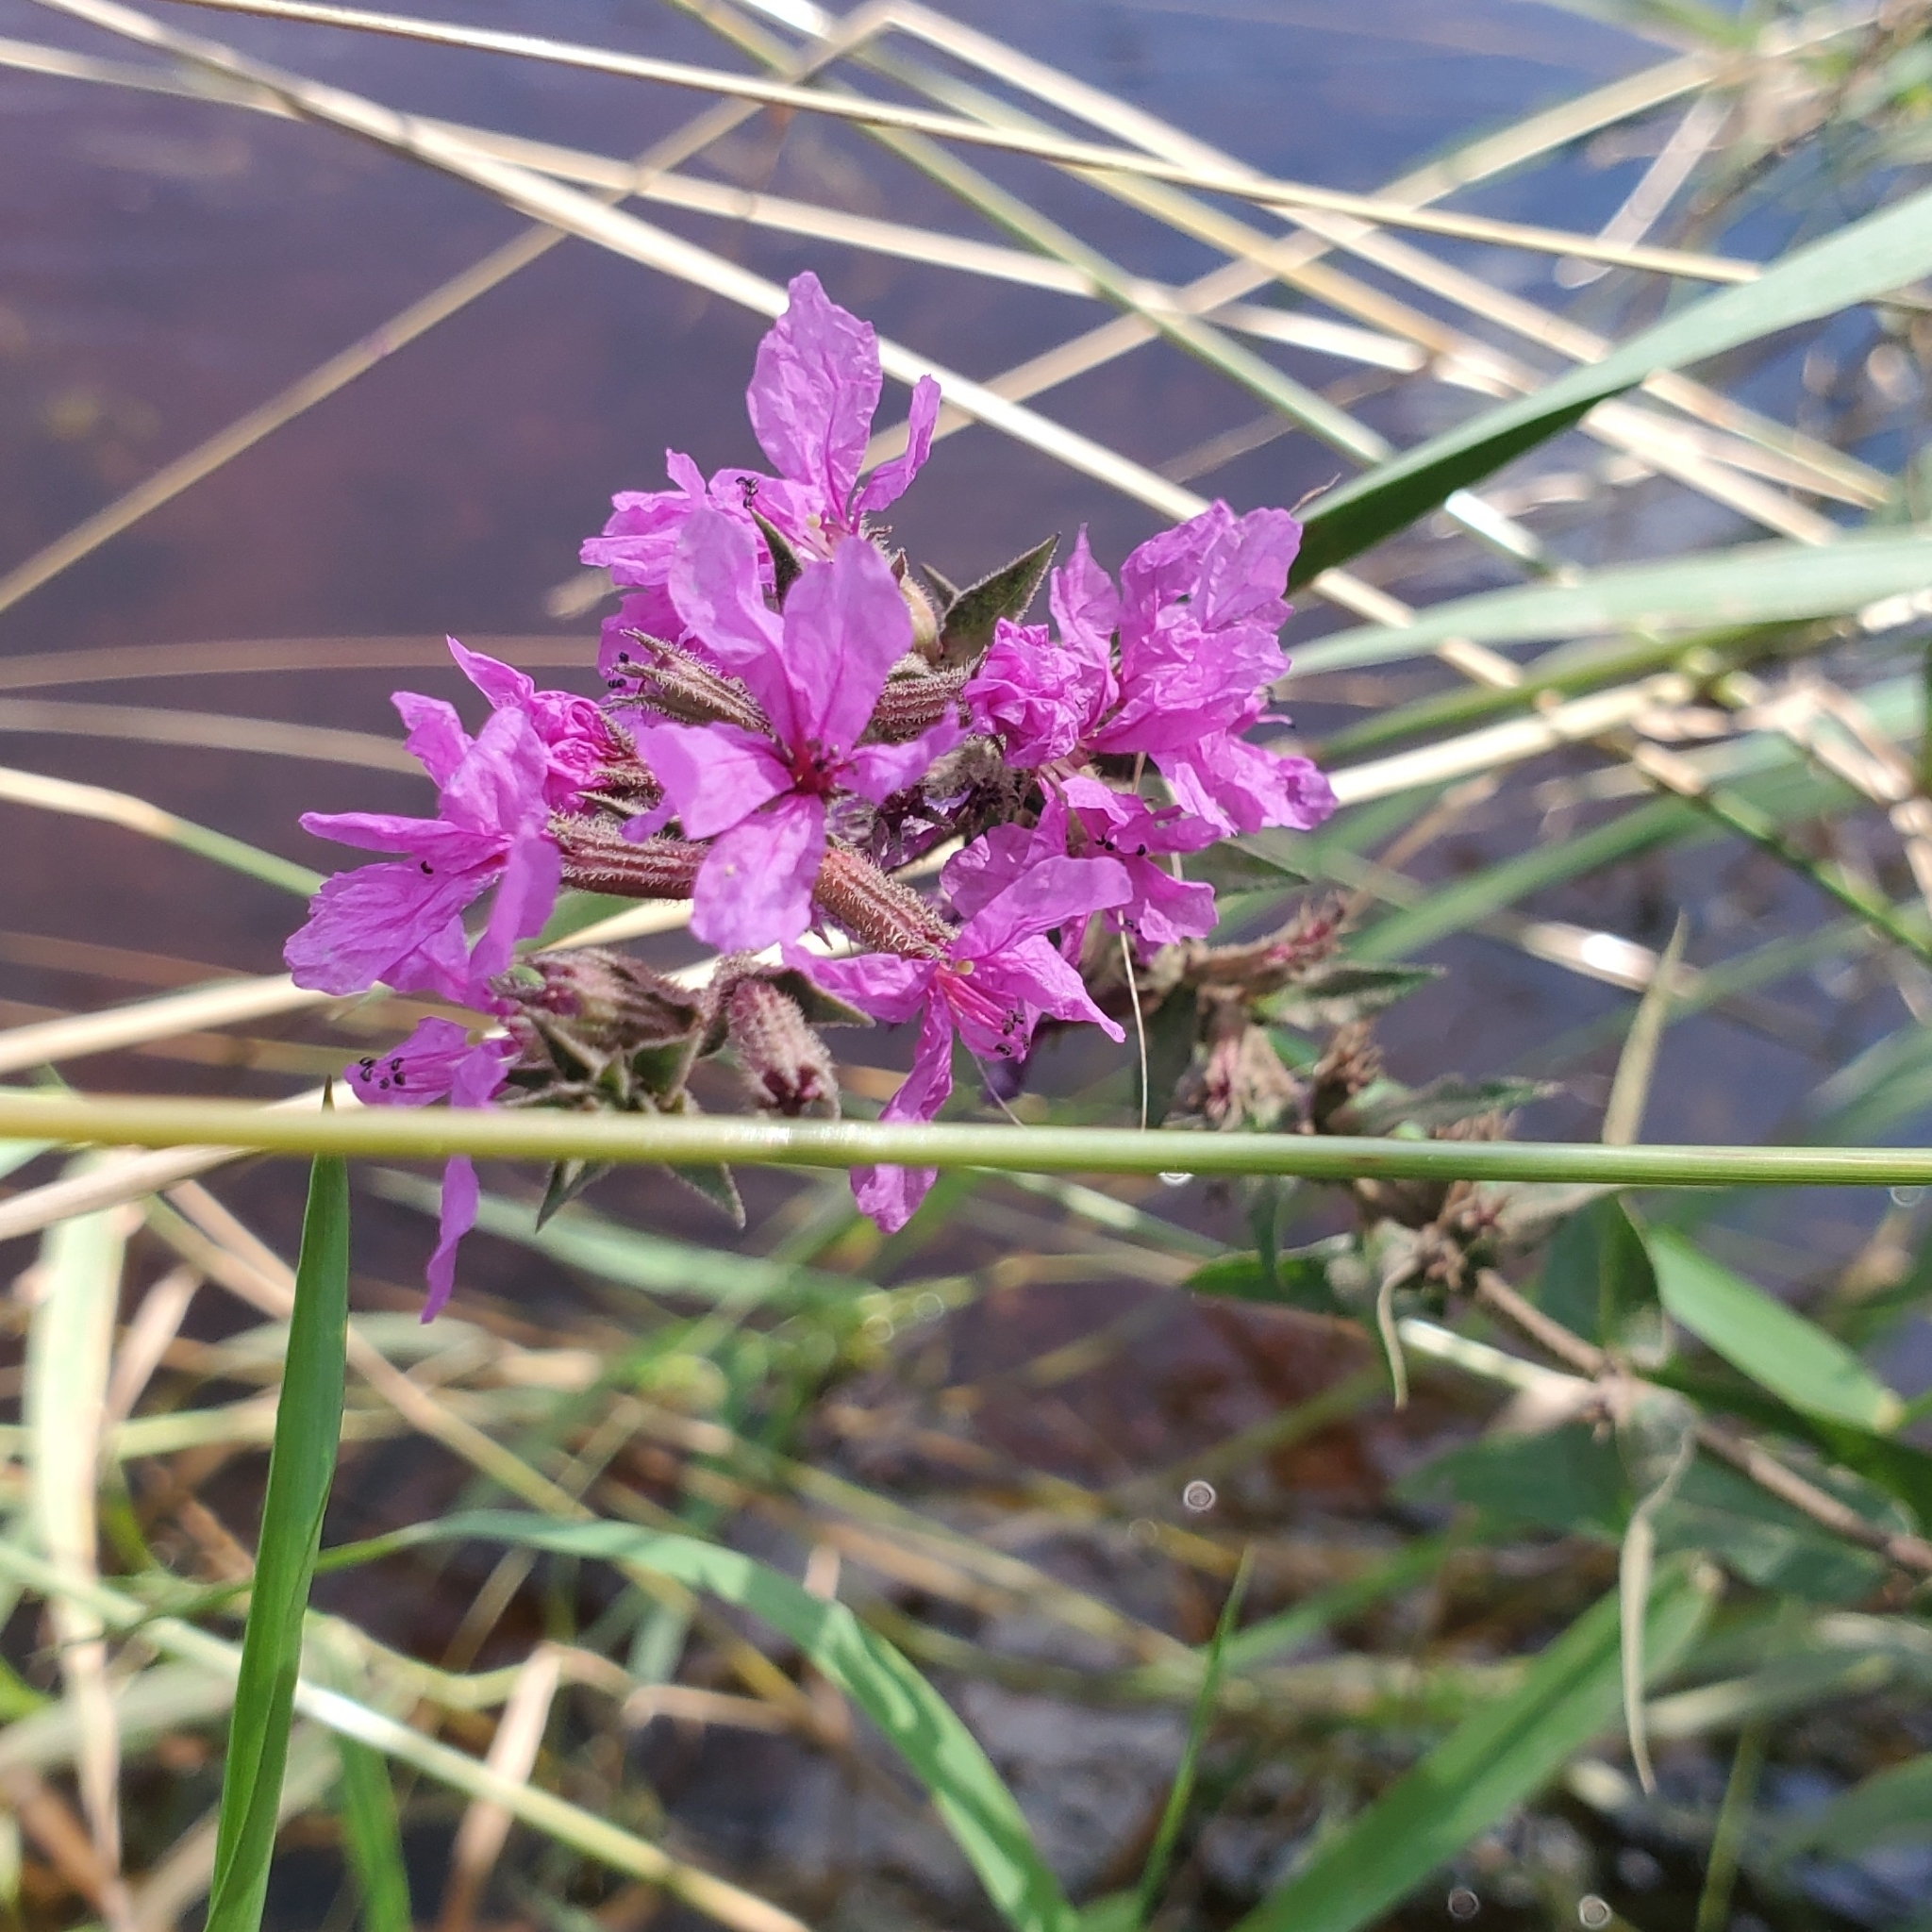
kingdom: Plantae
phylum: Tracheophyta
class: Magnoliopsida
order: Myrtales
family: Lythraceae
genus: Lythrum
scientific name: Lythrum salicaria
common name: Purple loosestrife
